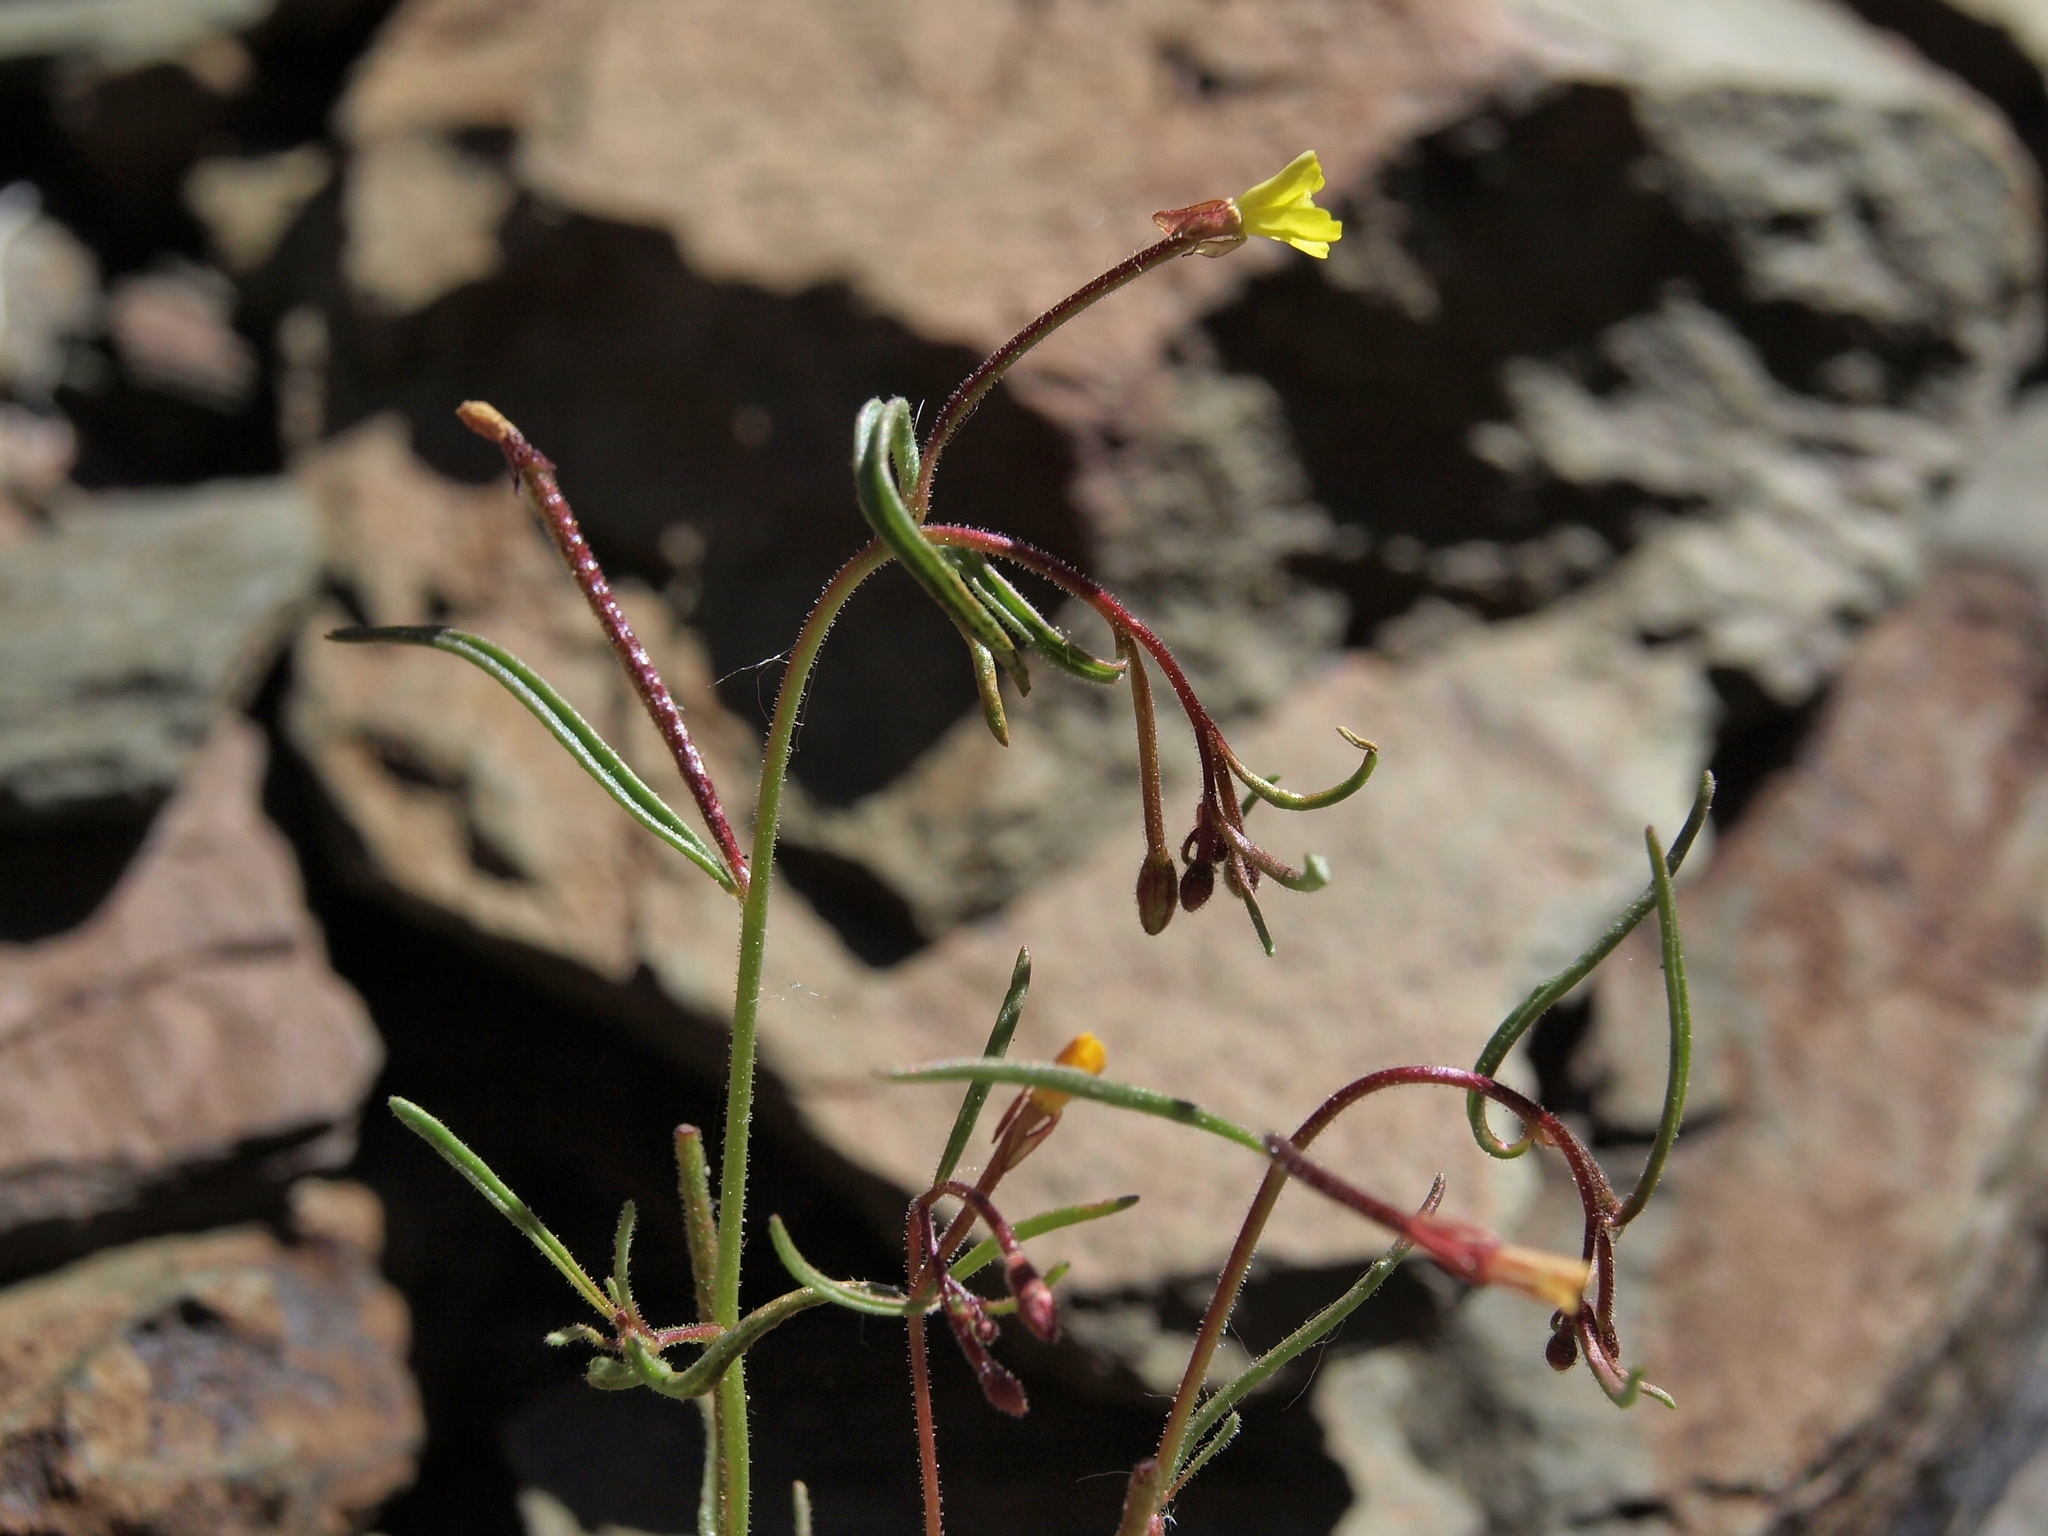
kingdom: Plantae
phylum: Tracheophyta
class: Magnoliopsida
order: Myrtales
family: Onagraceae
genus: Camissonia
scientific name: Camissonia parvula
